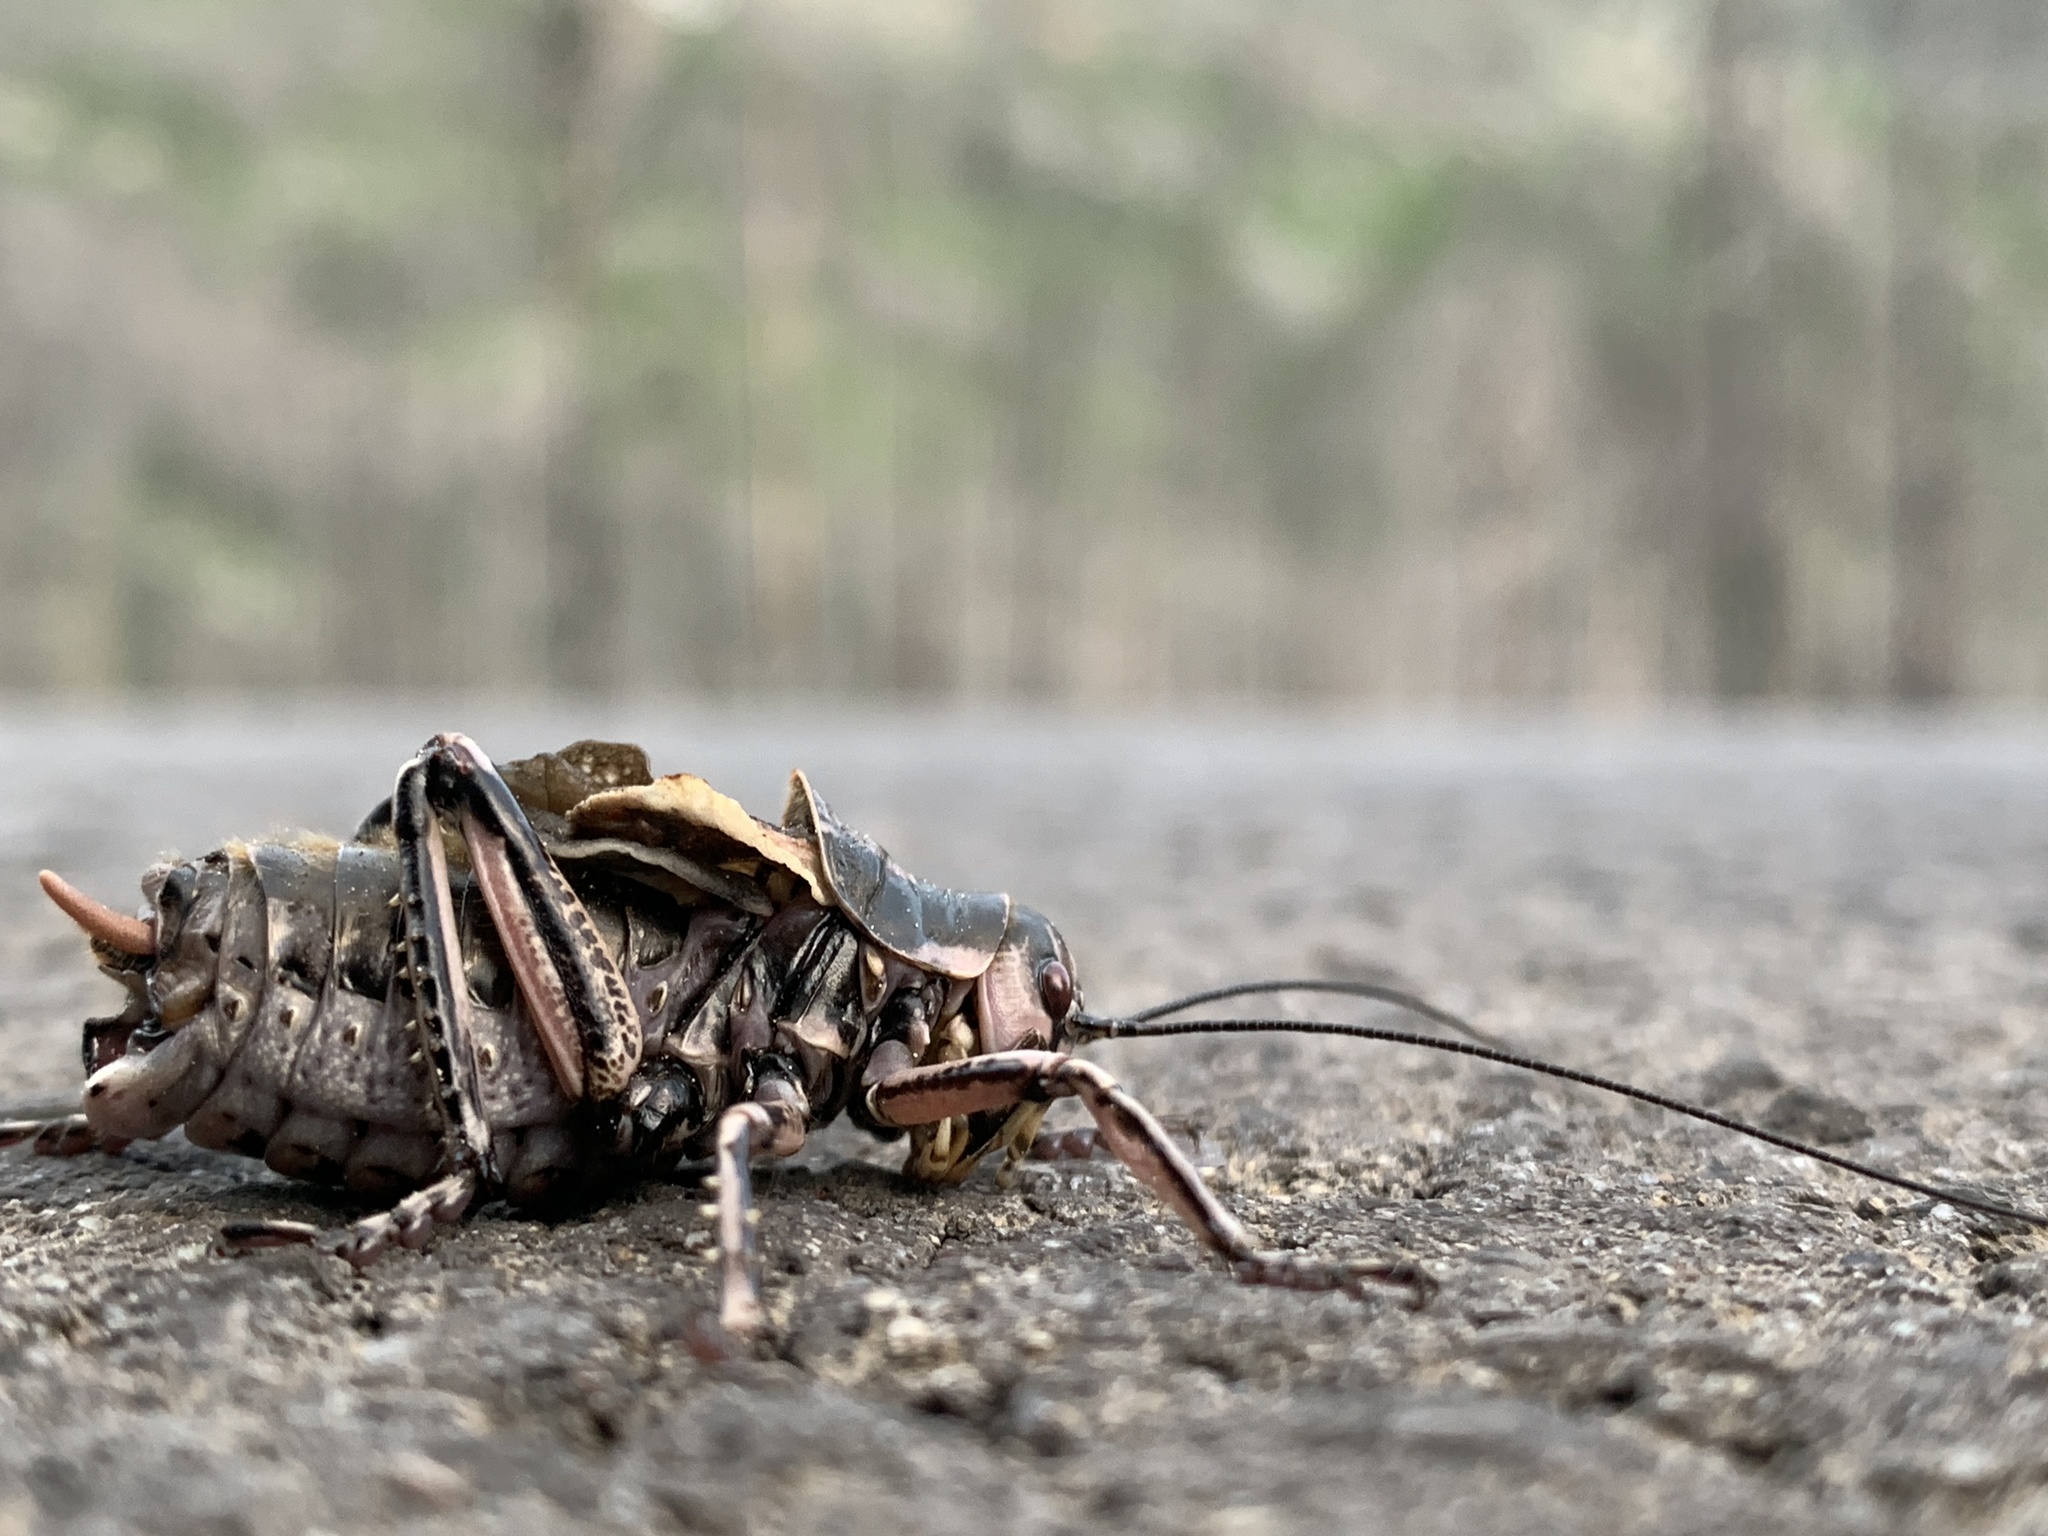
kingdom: Animalia
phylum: Arthropoda
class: Insecta
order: Orthoptera
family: Prophalangopsidae
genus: Cyphoderris
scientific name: Cyphoderris monstrosa
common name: Great grig
